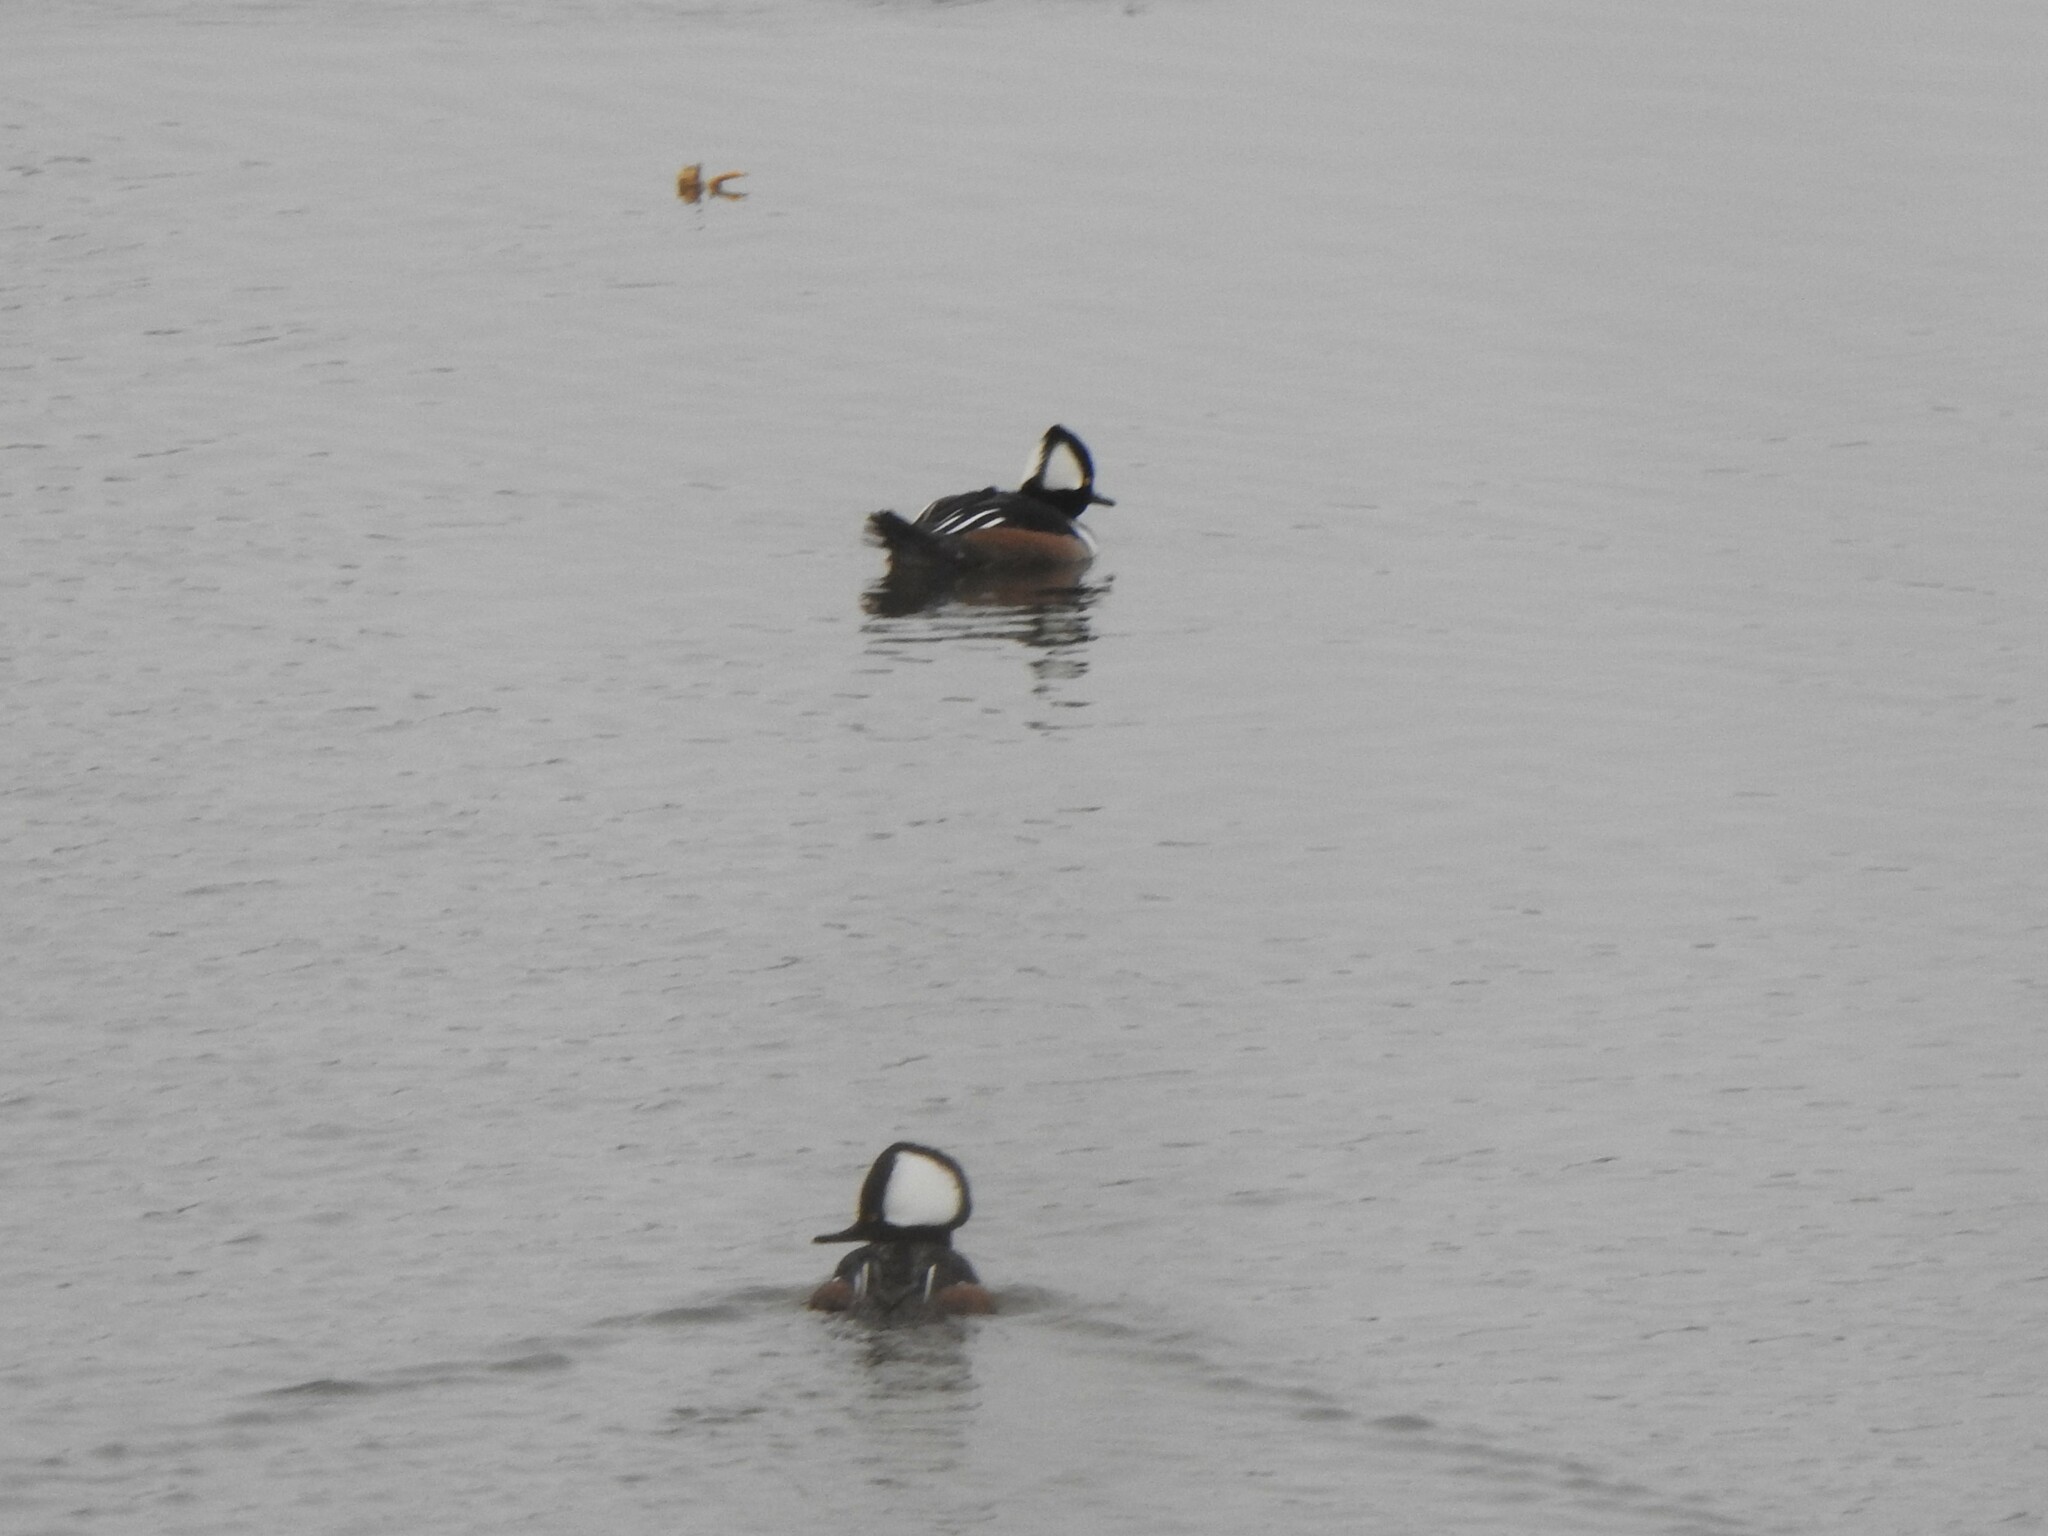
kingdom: Animalia
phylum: Chordata
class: Aves
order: Anseriformes
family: Anatidae
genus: Lophodytes
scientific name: Lophodytes cucullatus
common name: Hooded merganser
